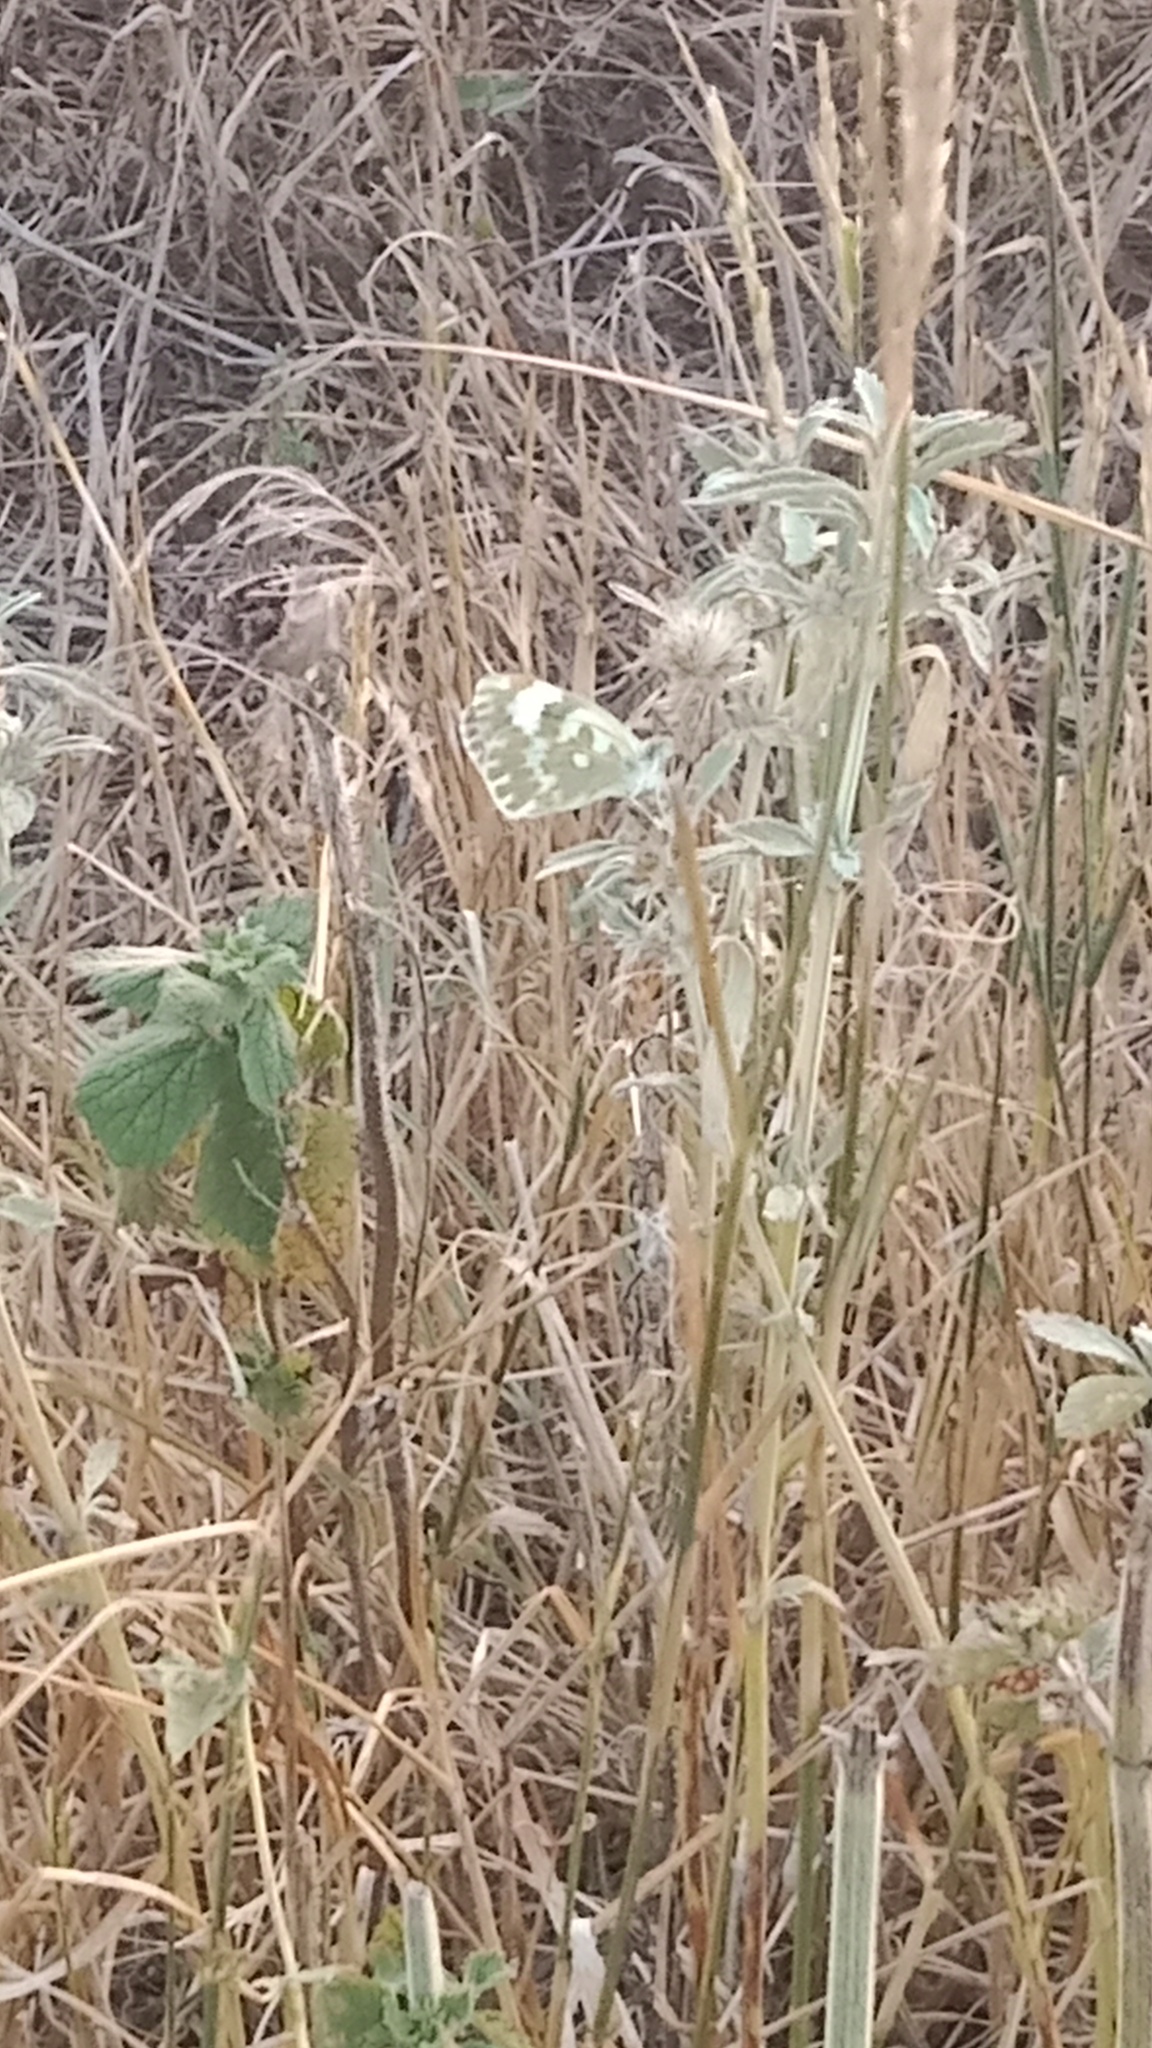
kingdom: Animalia
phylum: Arthropoda
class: Insecta
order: Lepidoptera
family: Pieridae
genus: Pontia
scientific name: Pontia edusa
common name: Eastern bath white
